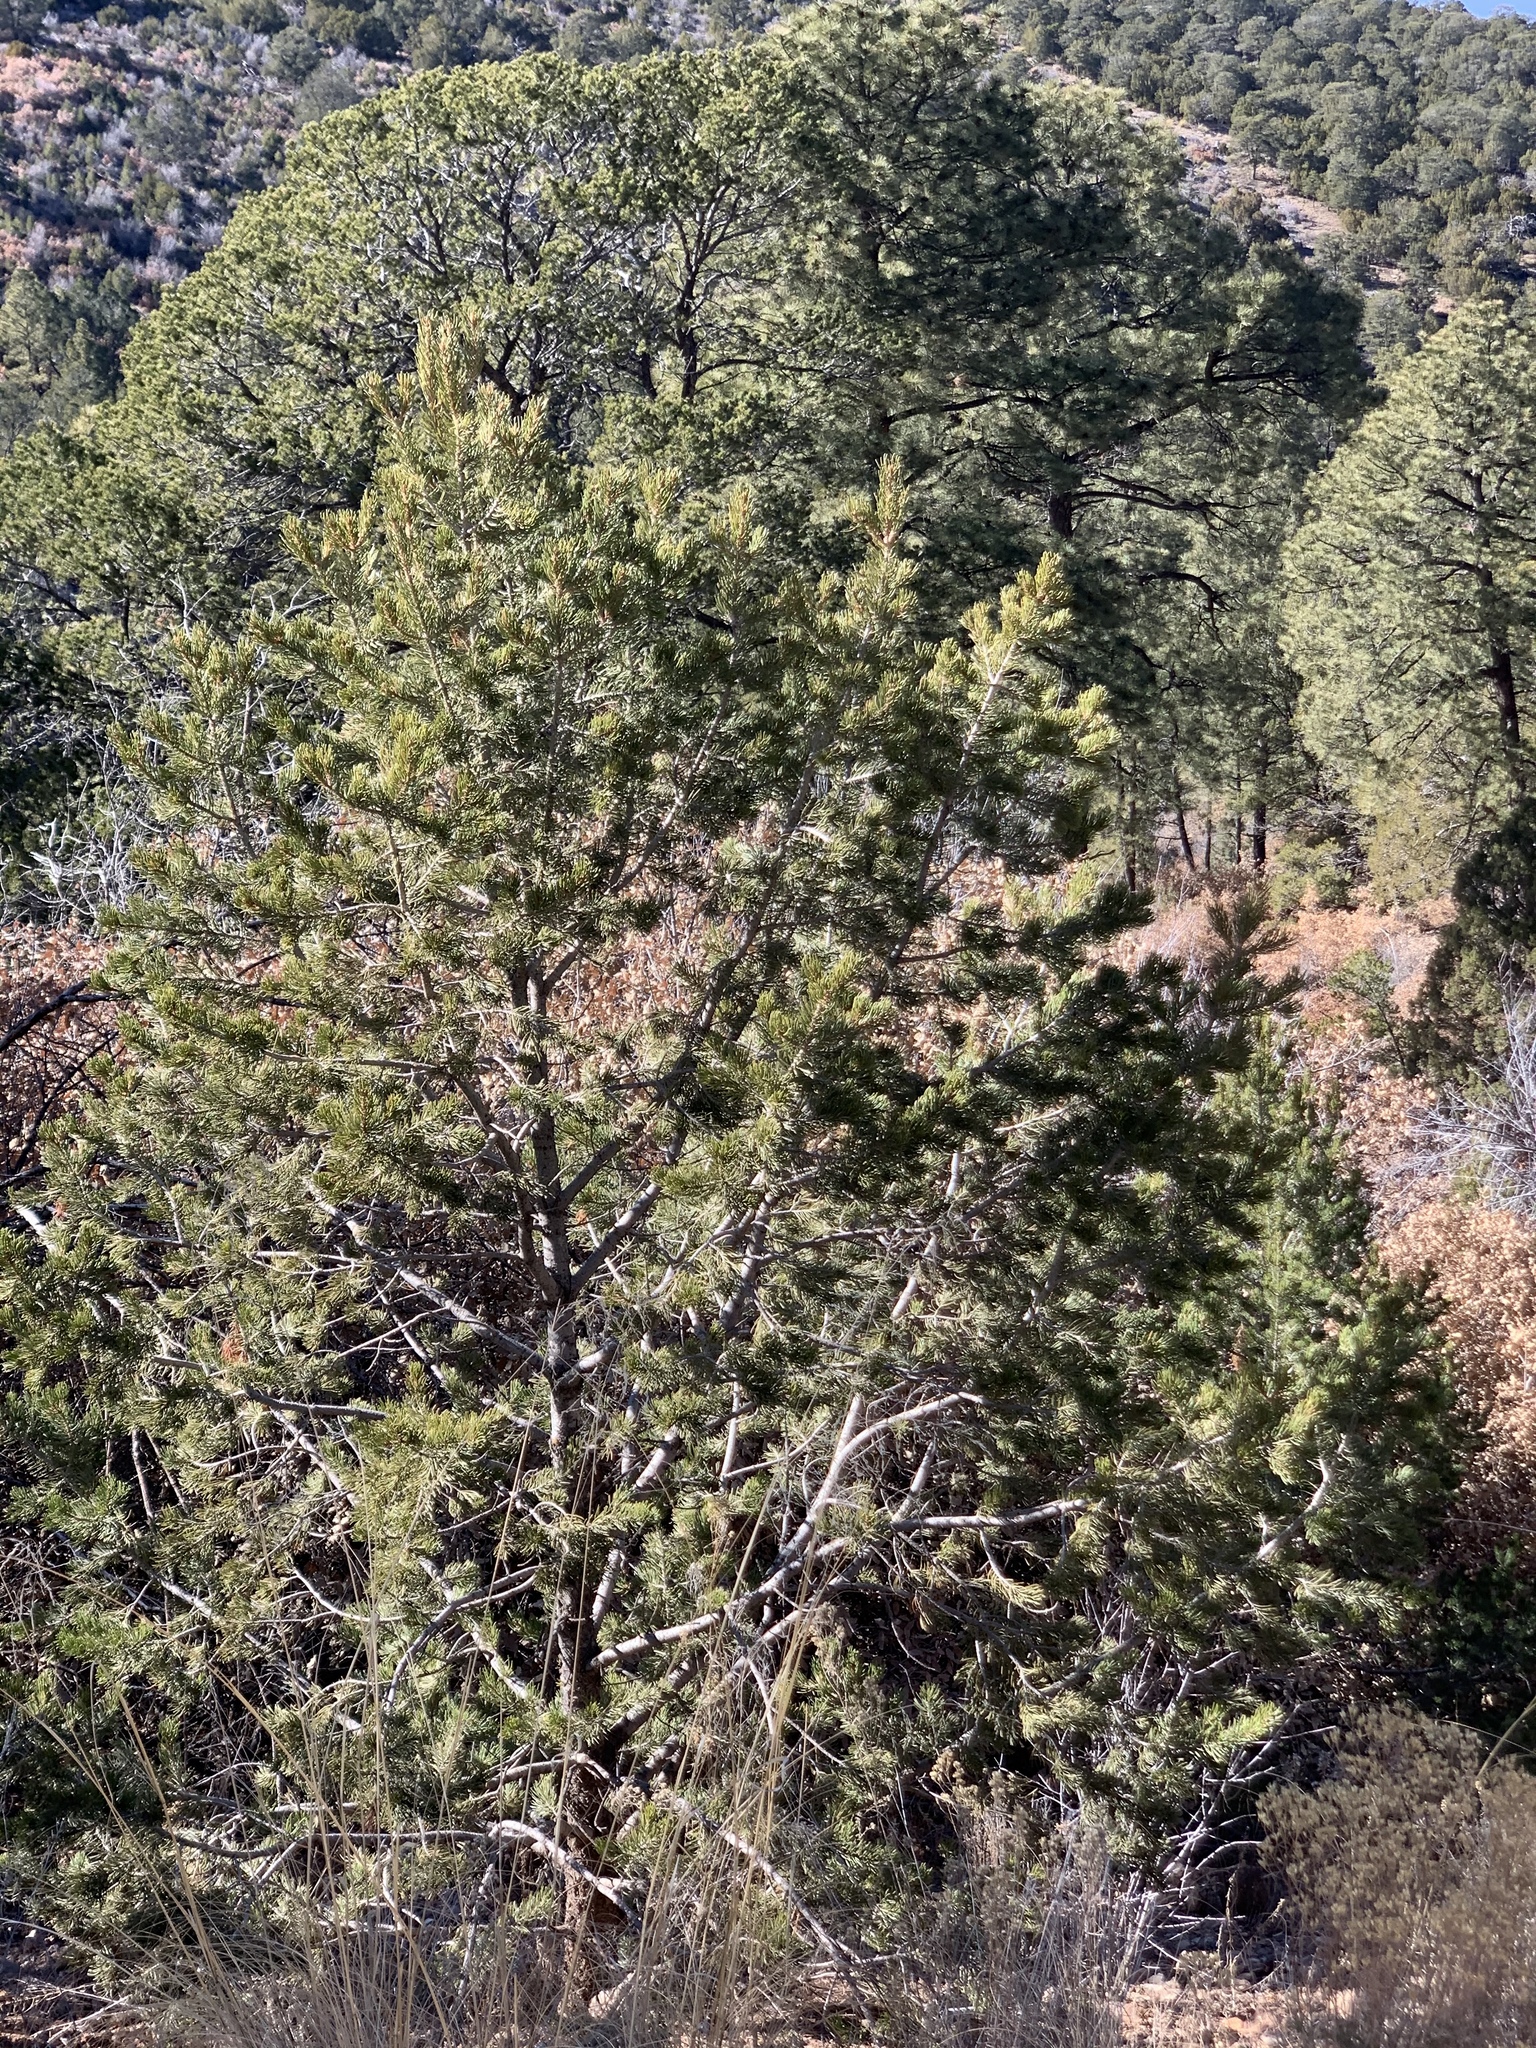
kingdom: Plantae
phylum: Tracheophyta
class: Pinopsida
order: Pinales
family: Pinaceae
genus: Pinus
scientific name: Pinus edulis
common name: Colorado pinyon
